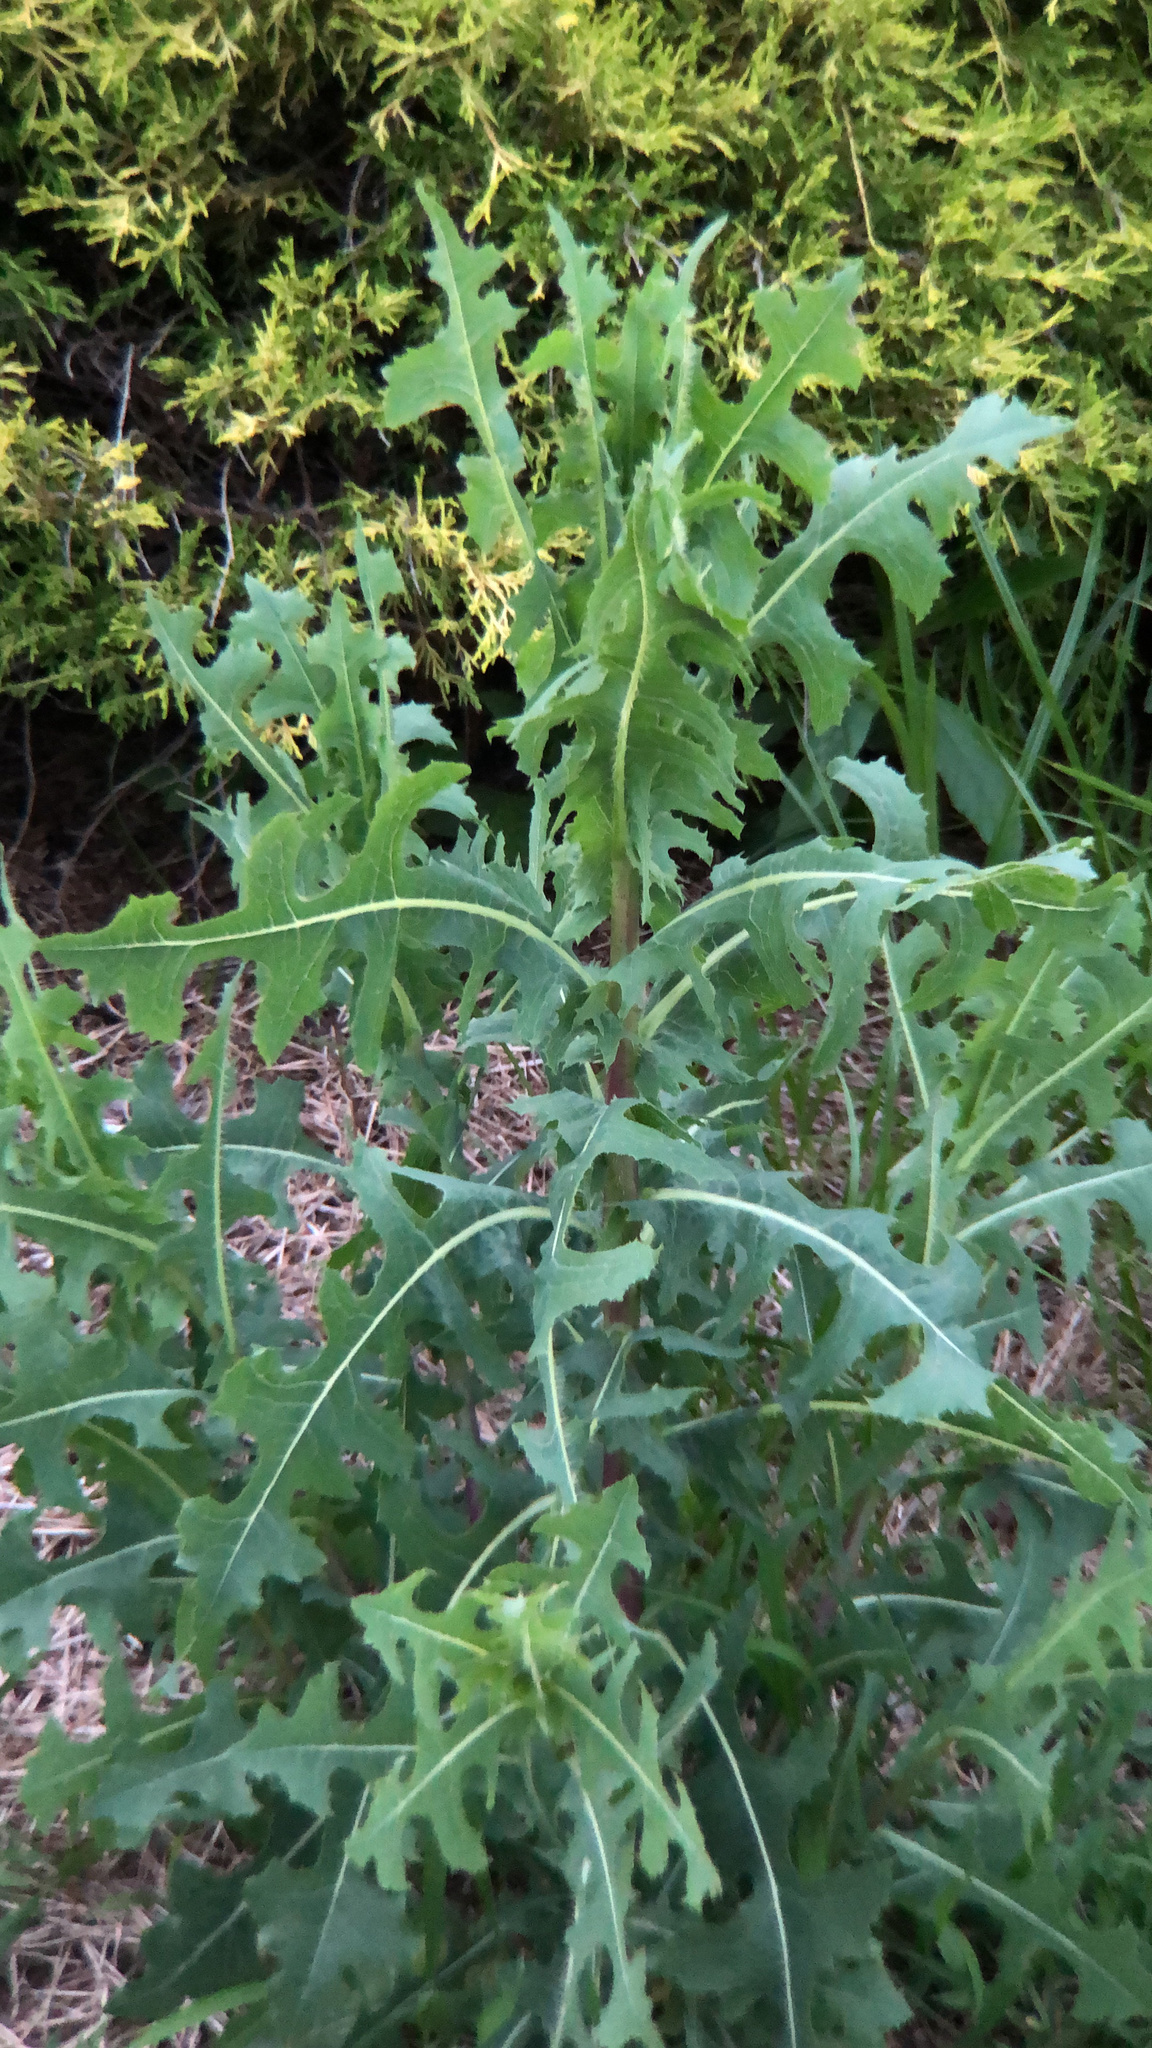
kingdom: Plantae
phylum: Tracheophyta
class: Magnoliopsida
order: Asterales
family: Asteraceae
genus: Lactuca
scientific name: Lactuca serriola
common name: Prickly lettuce
